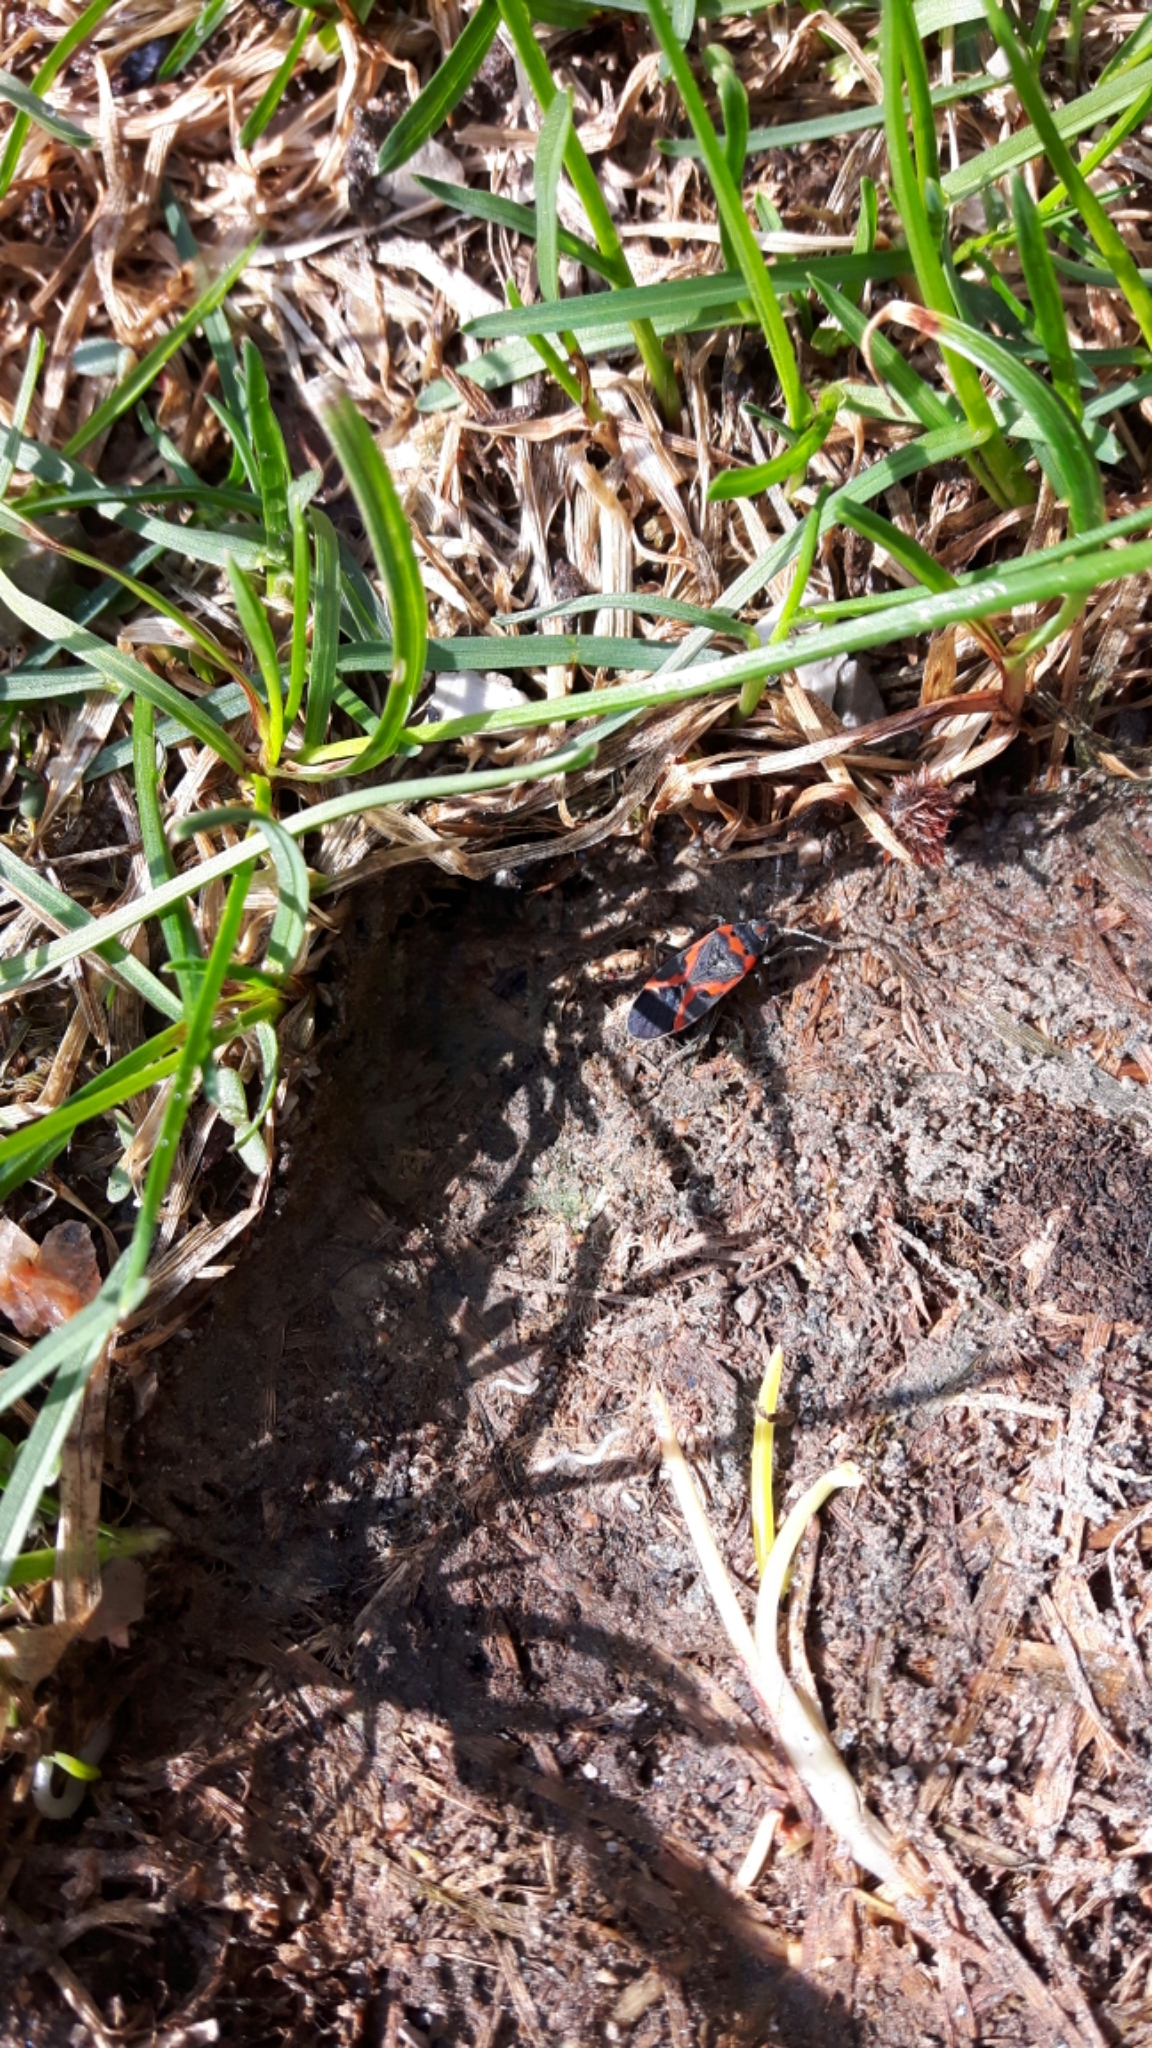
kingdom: Animalia
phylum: Arthropoda
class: Insecta
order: Hemiptera
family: Lygaeidae
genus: Lygaeus
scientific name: Lygaeus kalmii
